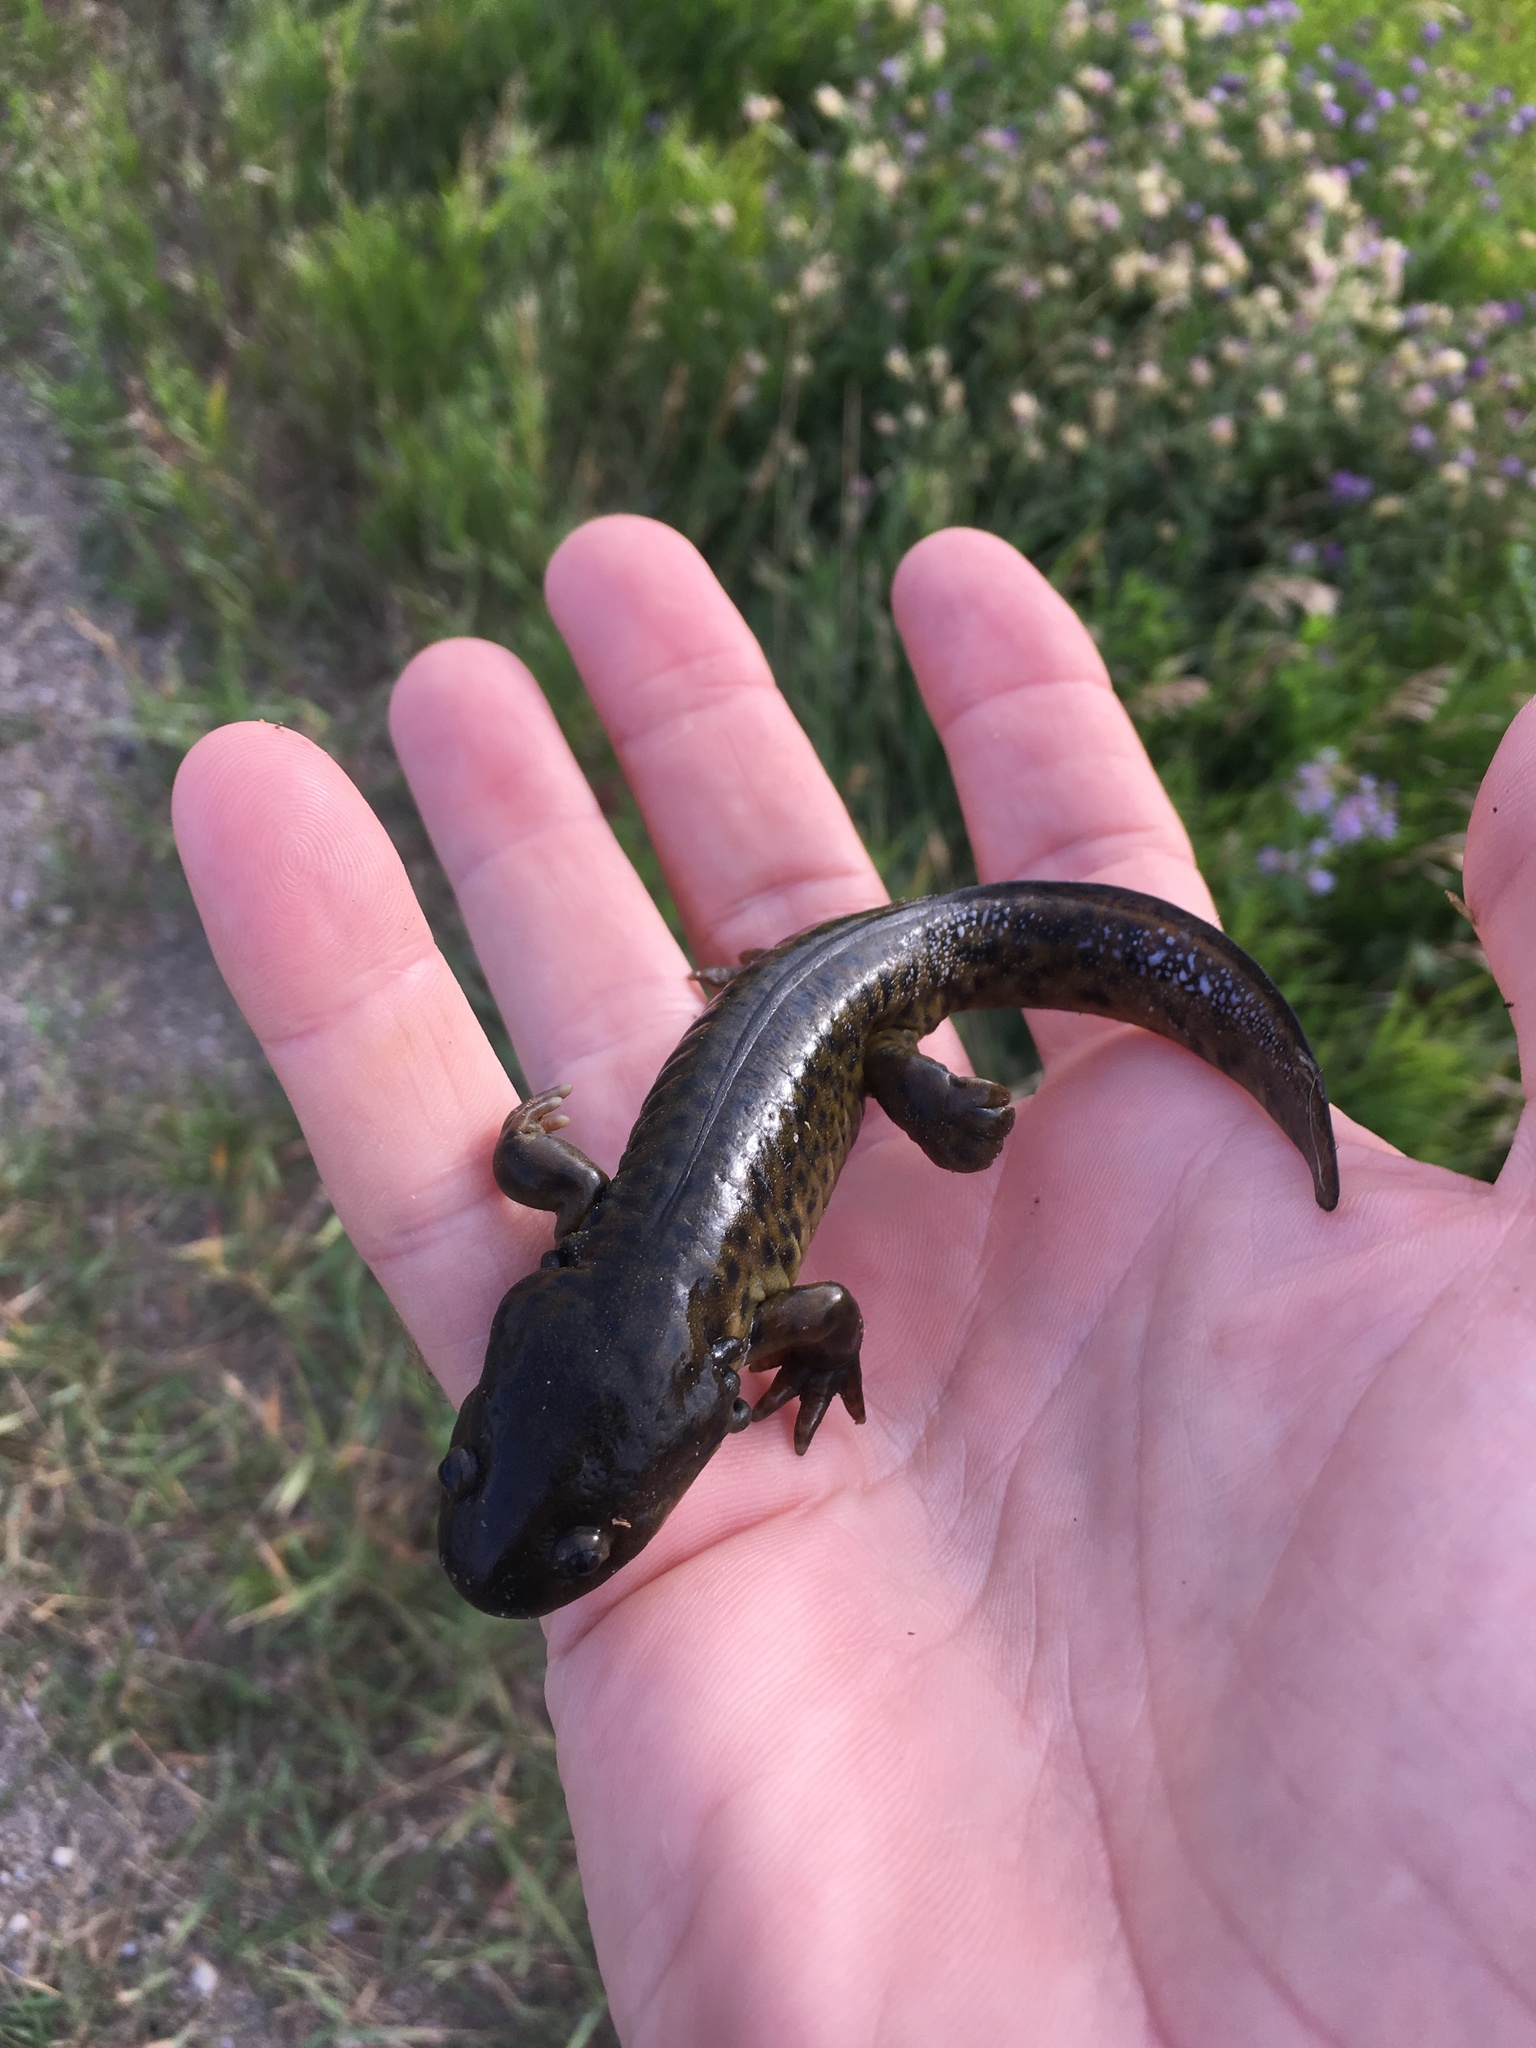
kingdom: Animalia
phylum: Chordata
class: Amphibia
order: Caudata
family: Ambystomatidae
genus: Ambystoma
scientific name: Ambystoma mavortium
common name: Western tiger salamander
